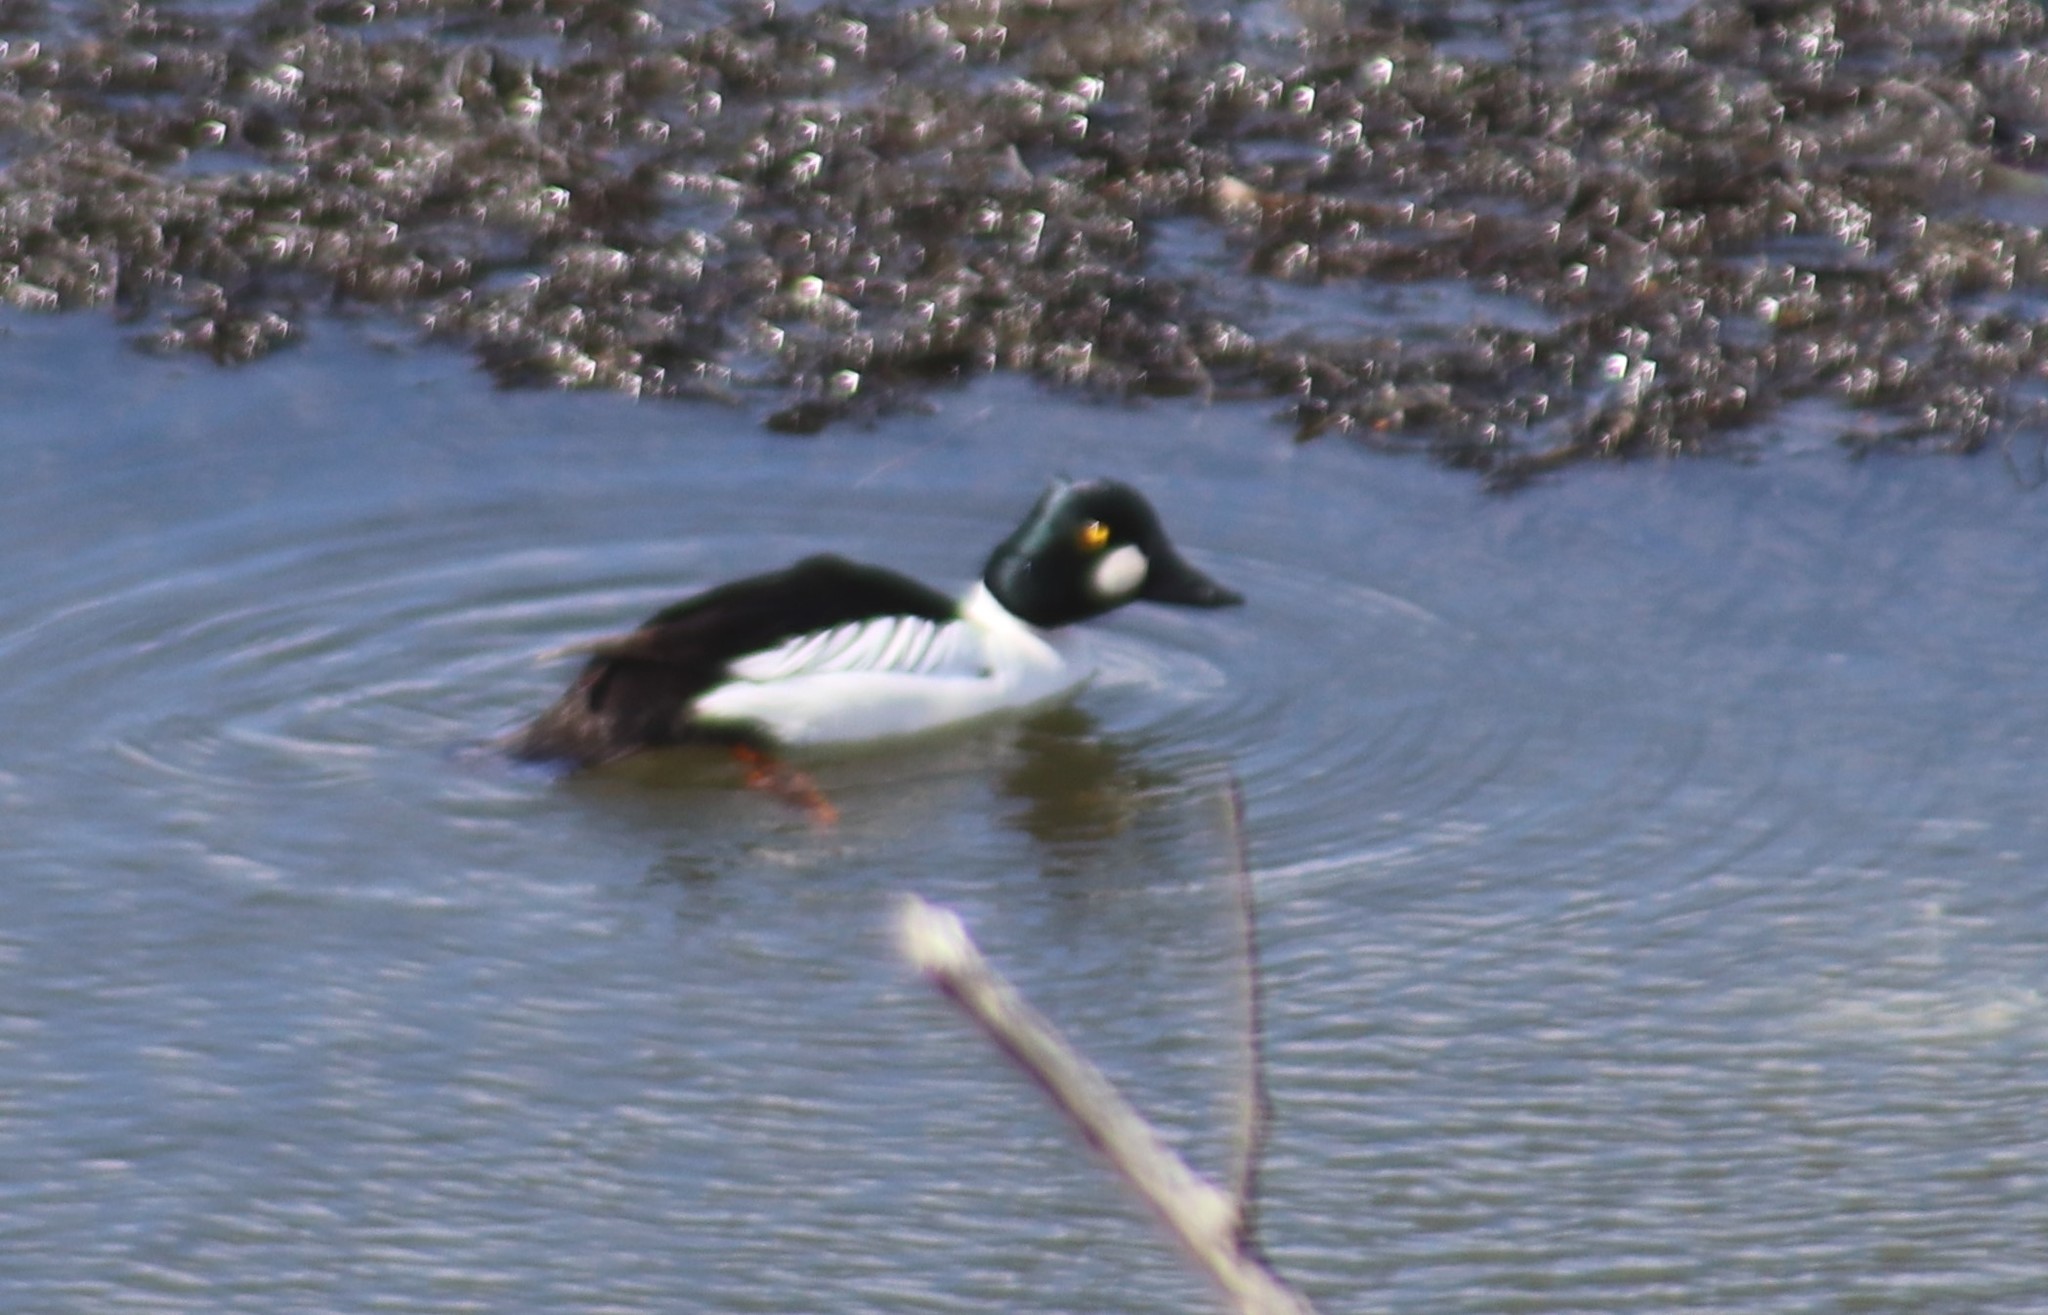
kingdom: Animalia
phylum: Chordata
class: Aves
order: Anseriformes
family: Anatidae
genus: Bucephala
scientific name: Bucephala clangula
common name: Common goldeneye
